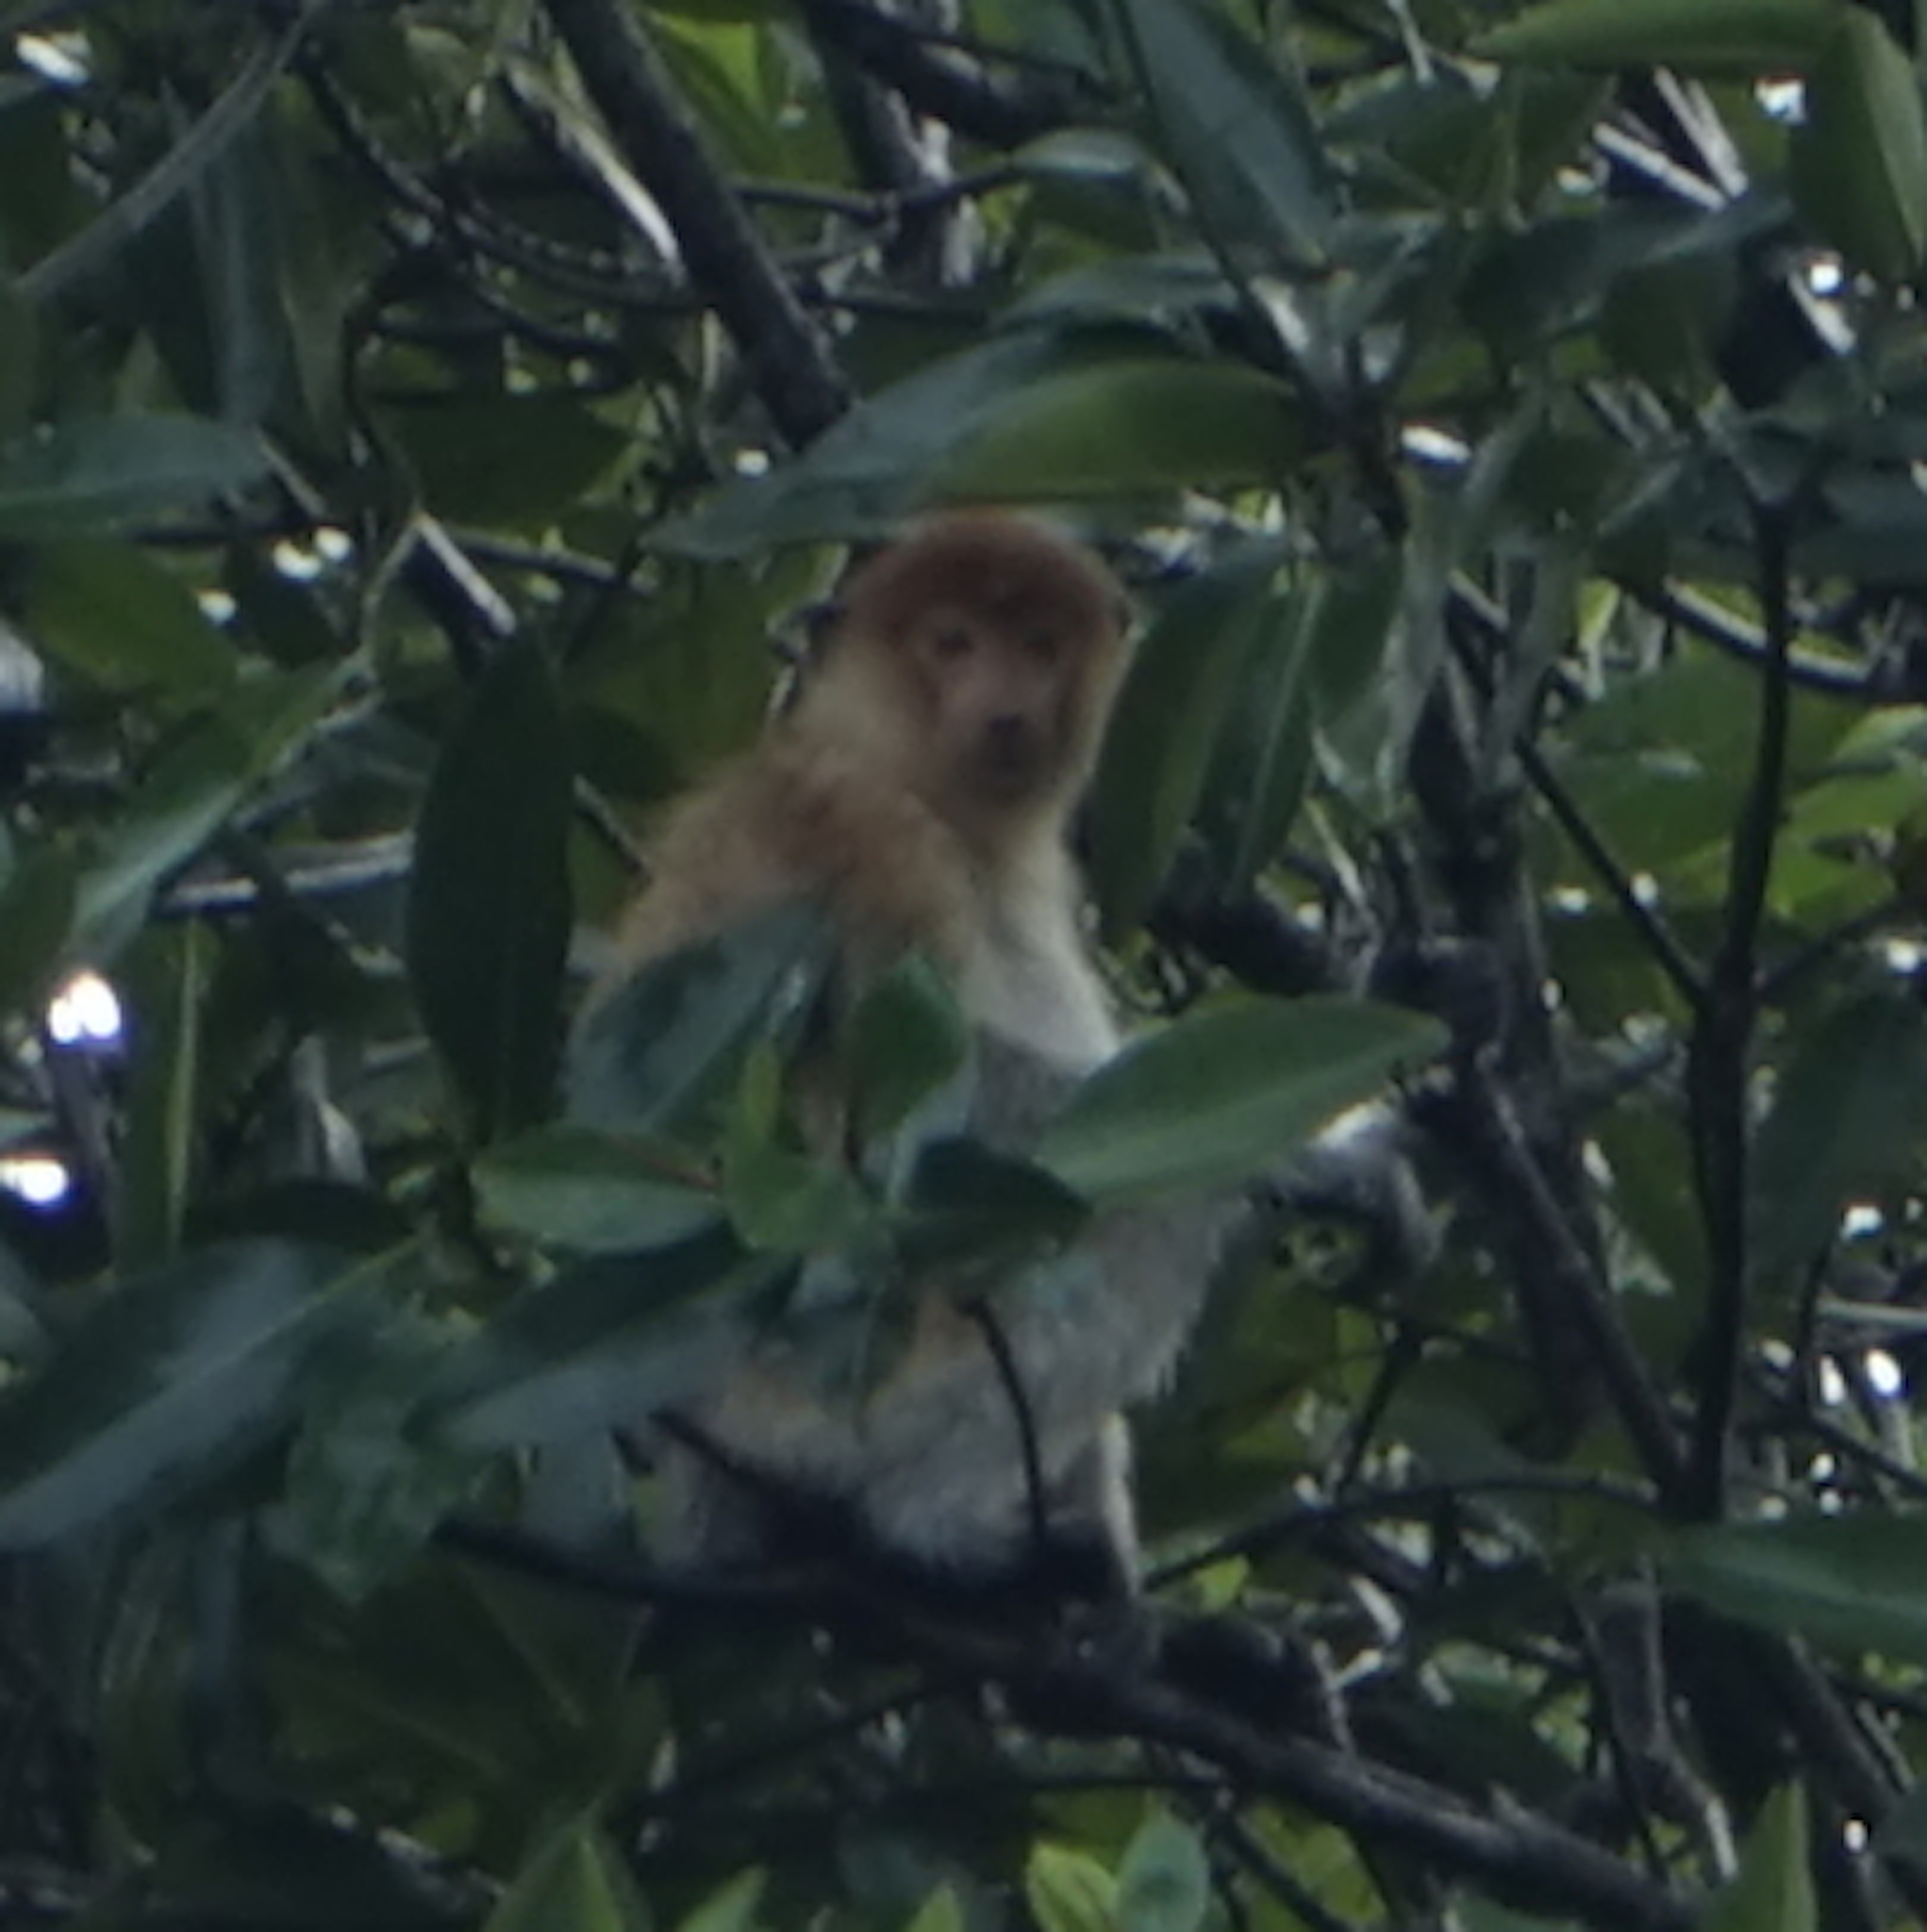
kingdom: Animalia
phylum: Chordata
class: Mammalia
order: Primates
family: Cercopithecidae
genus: Nasalis
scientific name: Nasalis larvatus
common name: Proboscis monkey
